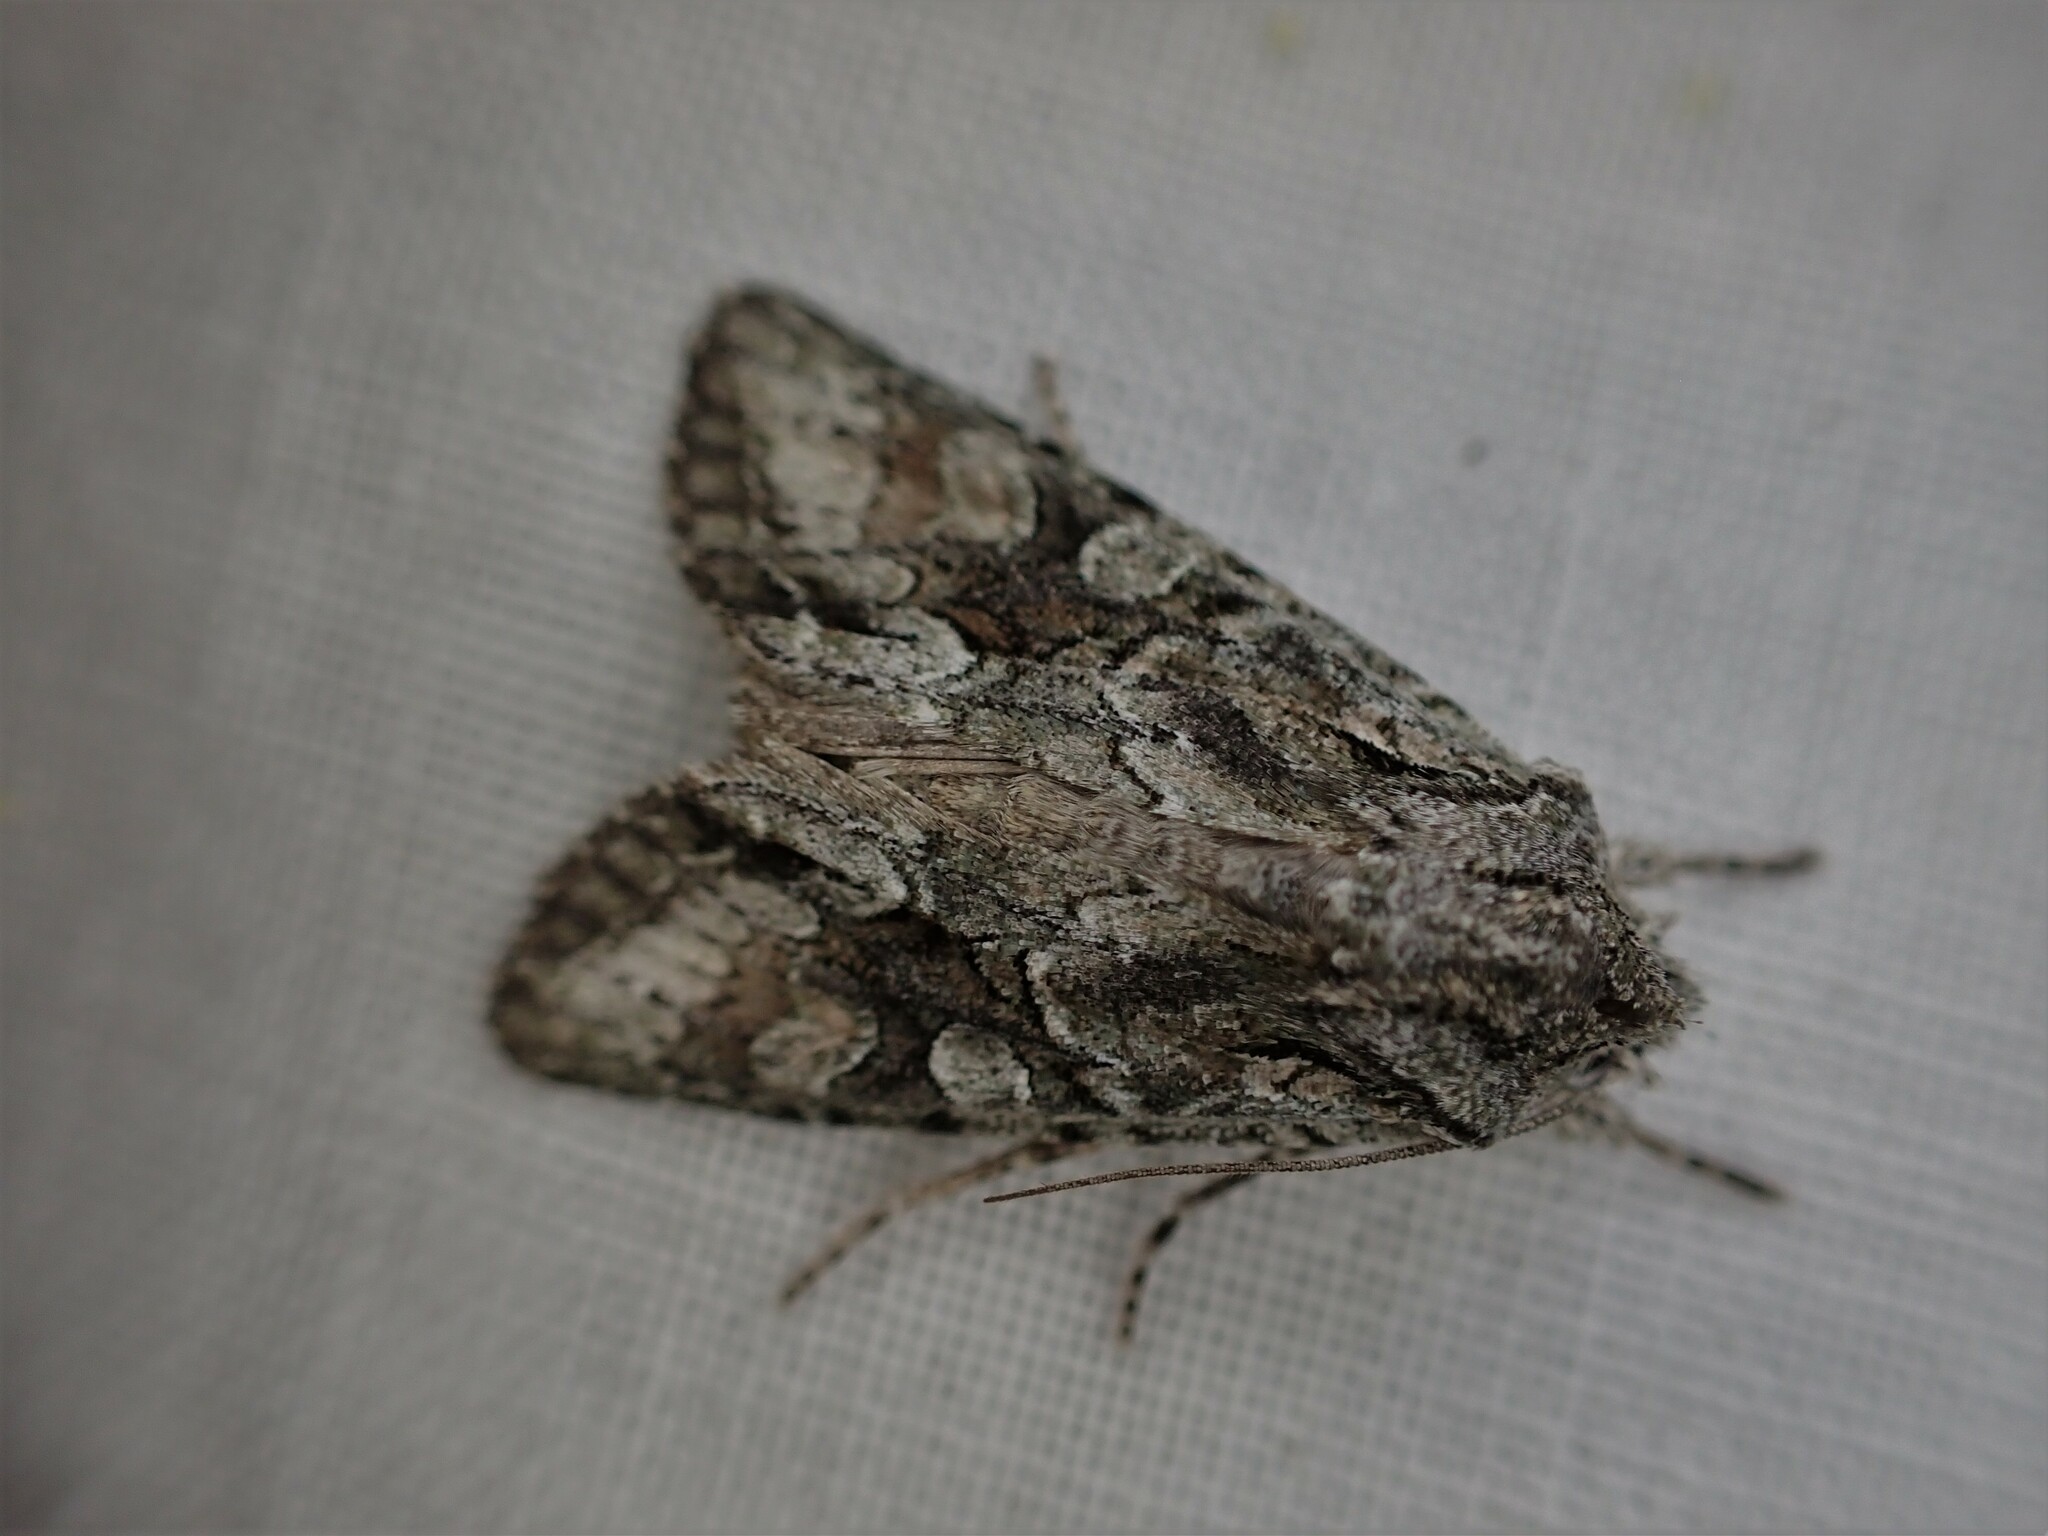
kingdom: Animalia
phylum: Arthropoda
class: Insecta
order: Lepidoptera
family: Noctuidae
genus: Ichneutica
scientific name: Ichneutica mutans
